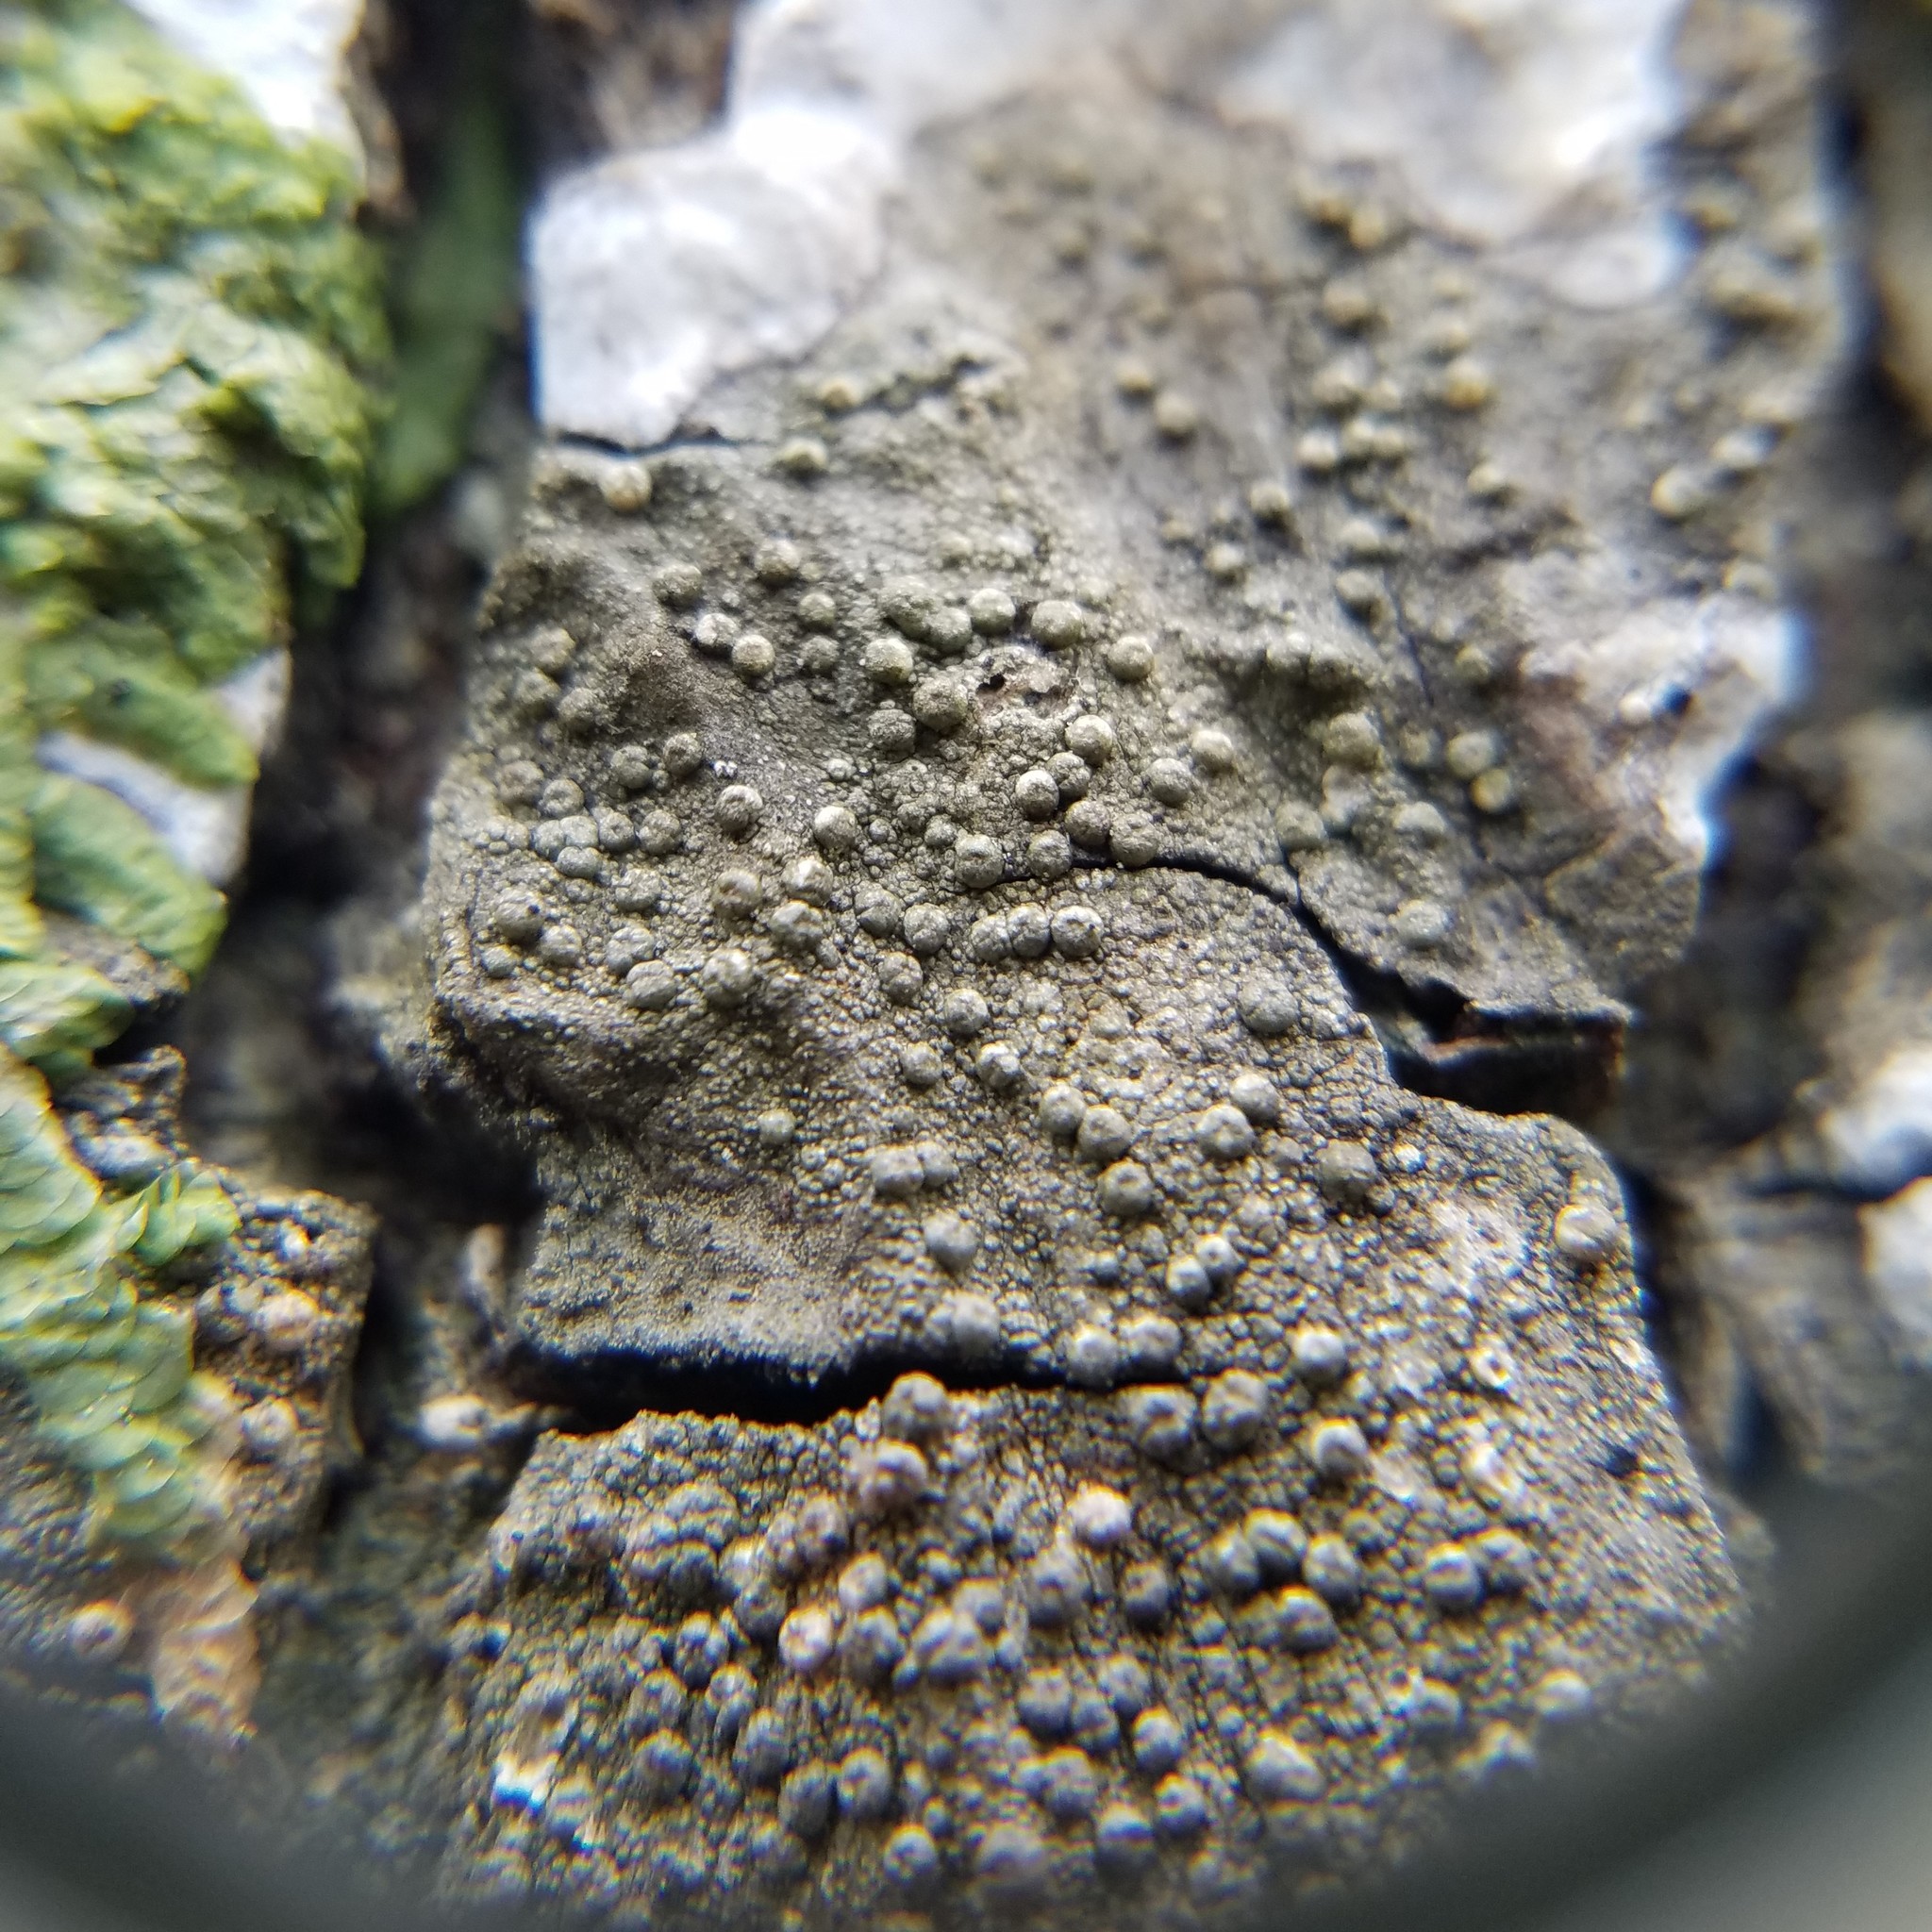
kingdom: Fungi
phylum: Ascomycota
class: Lecanoromycetes
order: Pertusariales
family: Pertusariaceae
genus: Porina
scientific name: Porina heterospora
